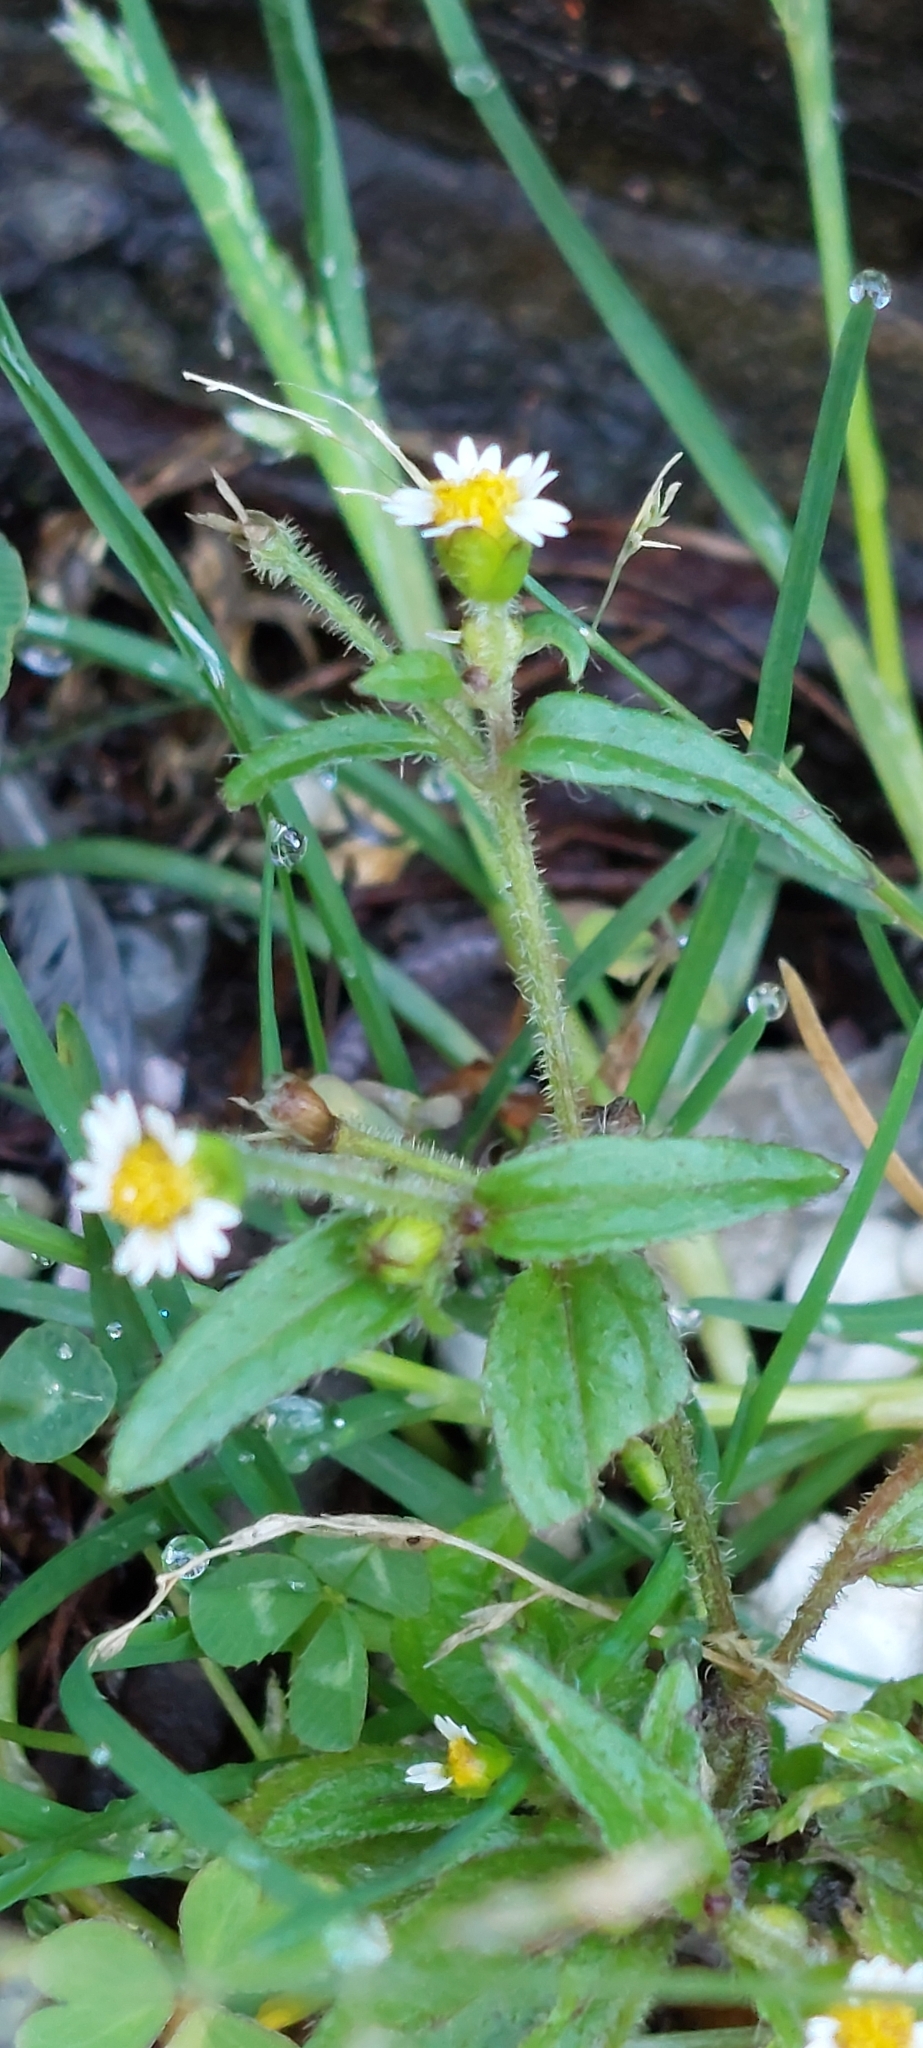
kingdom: Plantae
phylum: Tracheophyta
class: Magnoliopsida
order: Asterales
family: Asteraceae
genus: Galinsoga
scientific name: Galinsoga quadriradiata
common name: Shaggy soldier
